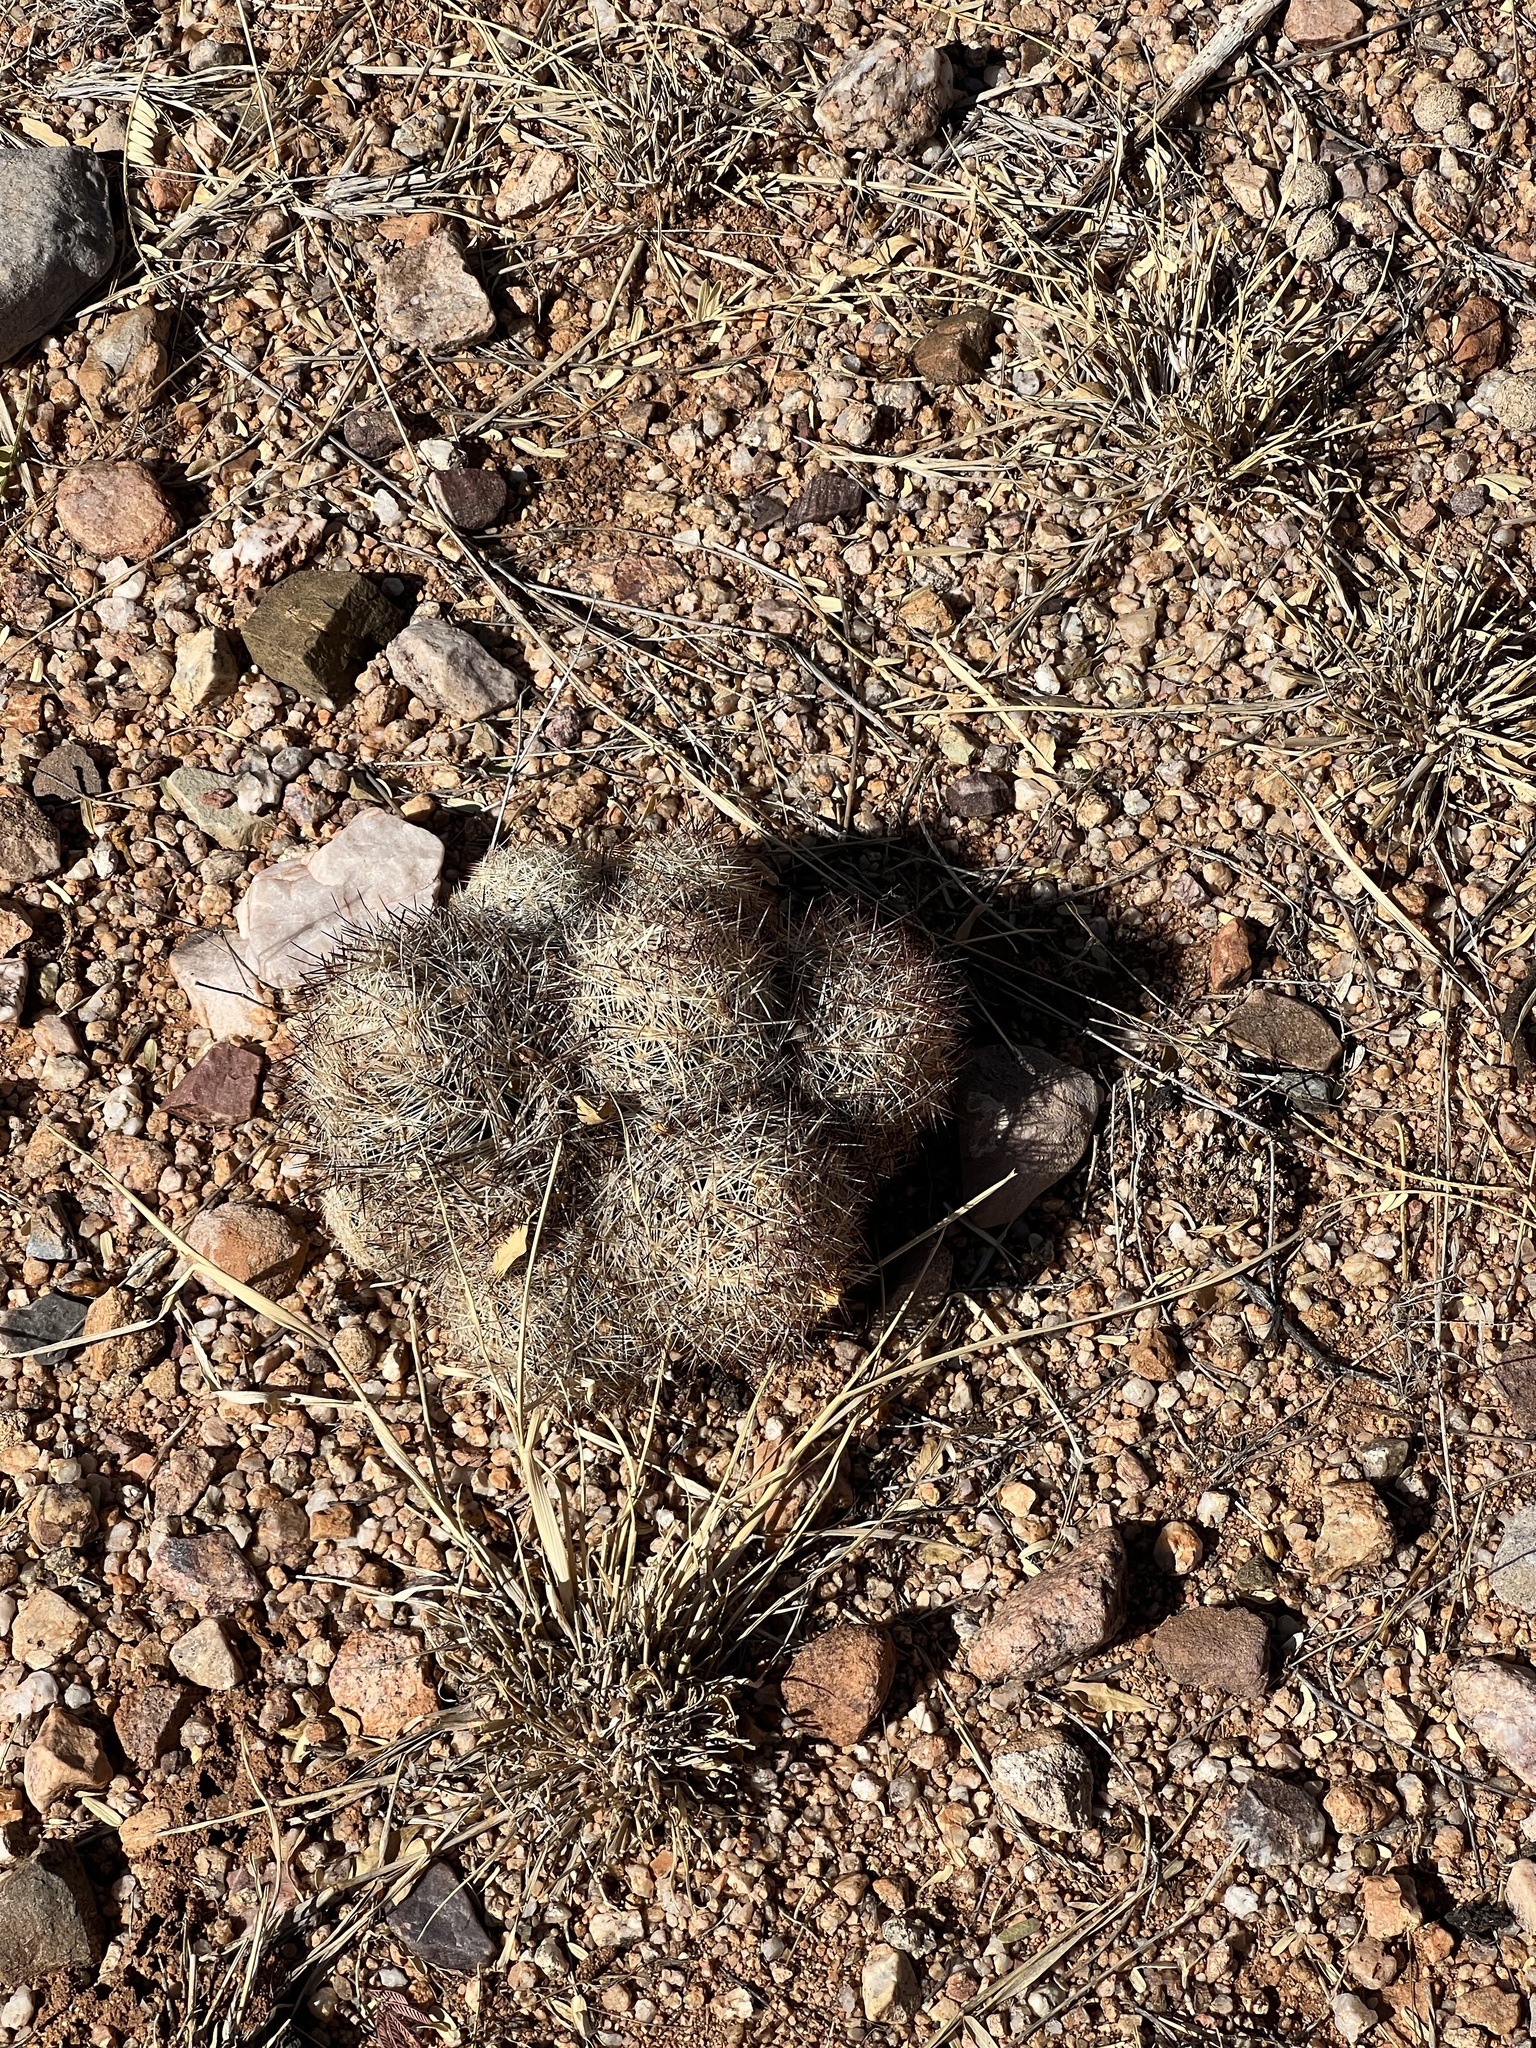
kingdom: Plantae
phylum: Tracheophyta
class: Magnoliopsida
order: Caryophyllales
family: Cactaceae
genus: Pelecyphora
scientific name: Pelecyphora vivipara
